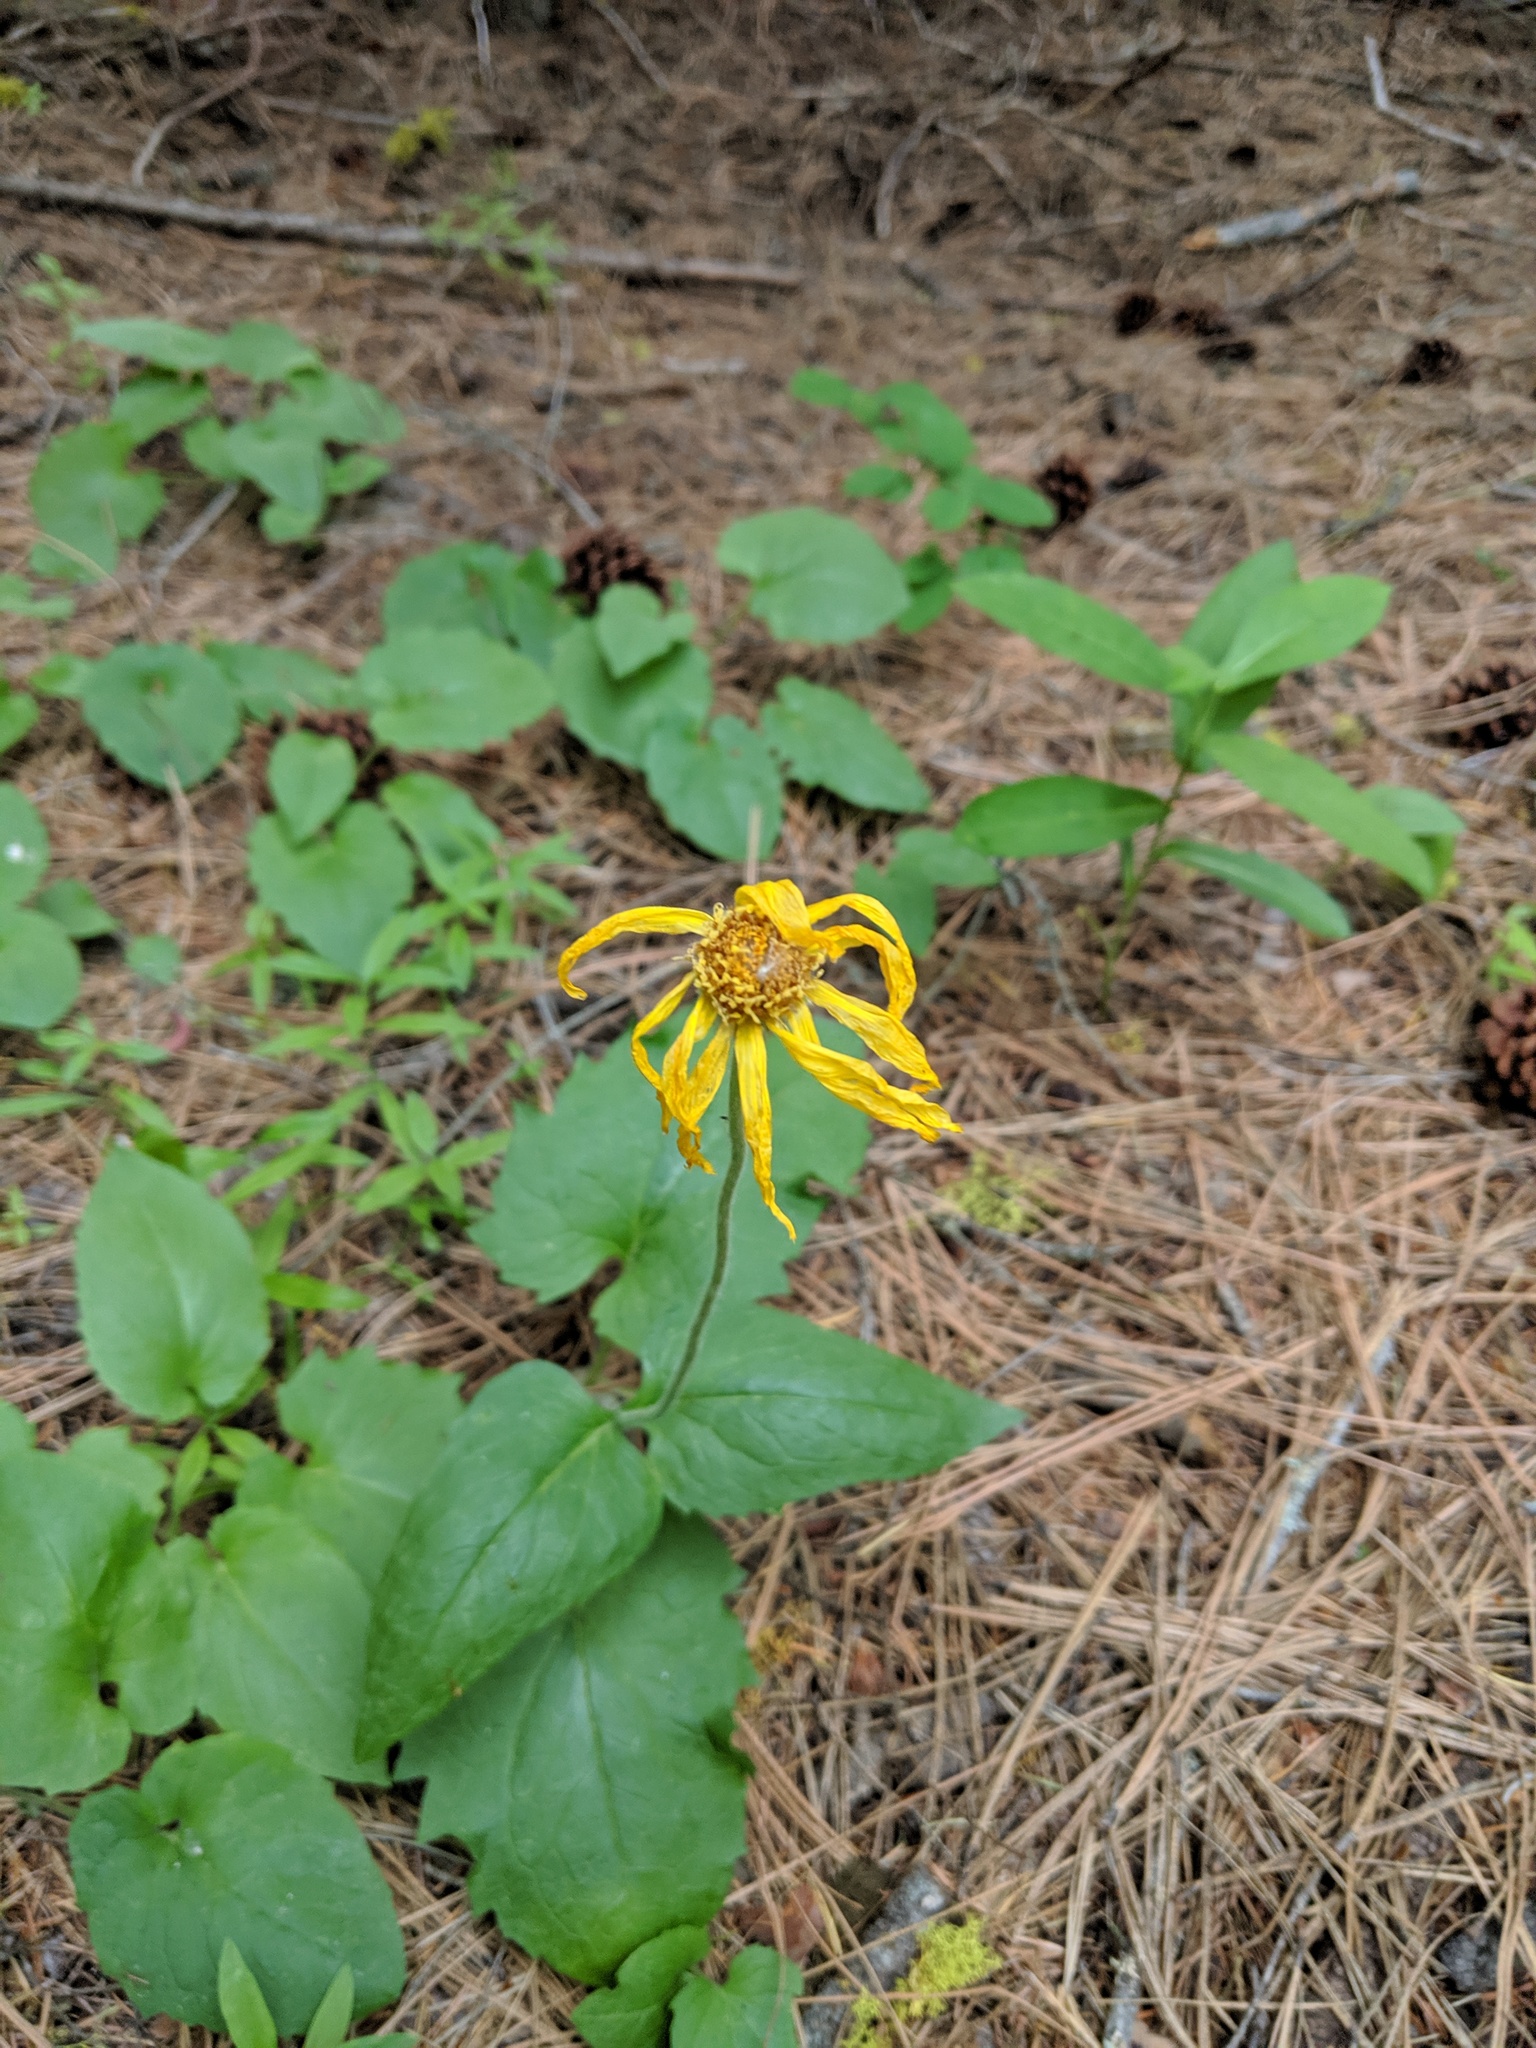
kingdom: Plantae
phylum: Tracheophyta
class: Magnoliopsida
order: Asterales
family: Asteraceae
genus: Arnica
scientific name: Arnica cordifolia
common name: Heart-leaf arnica
